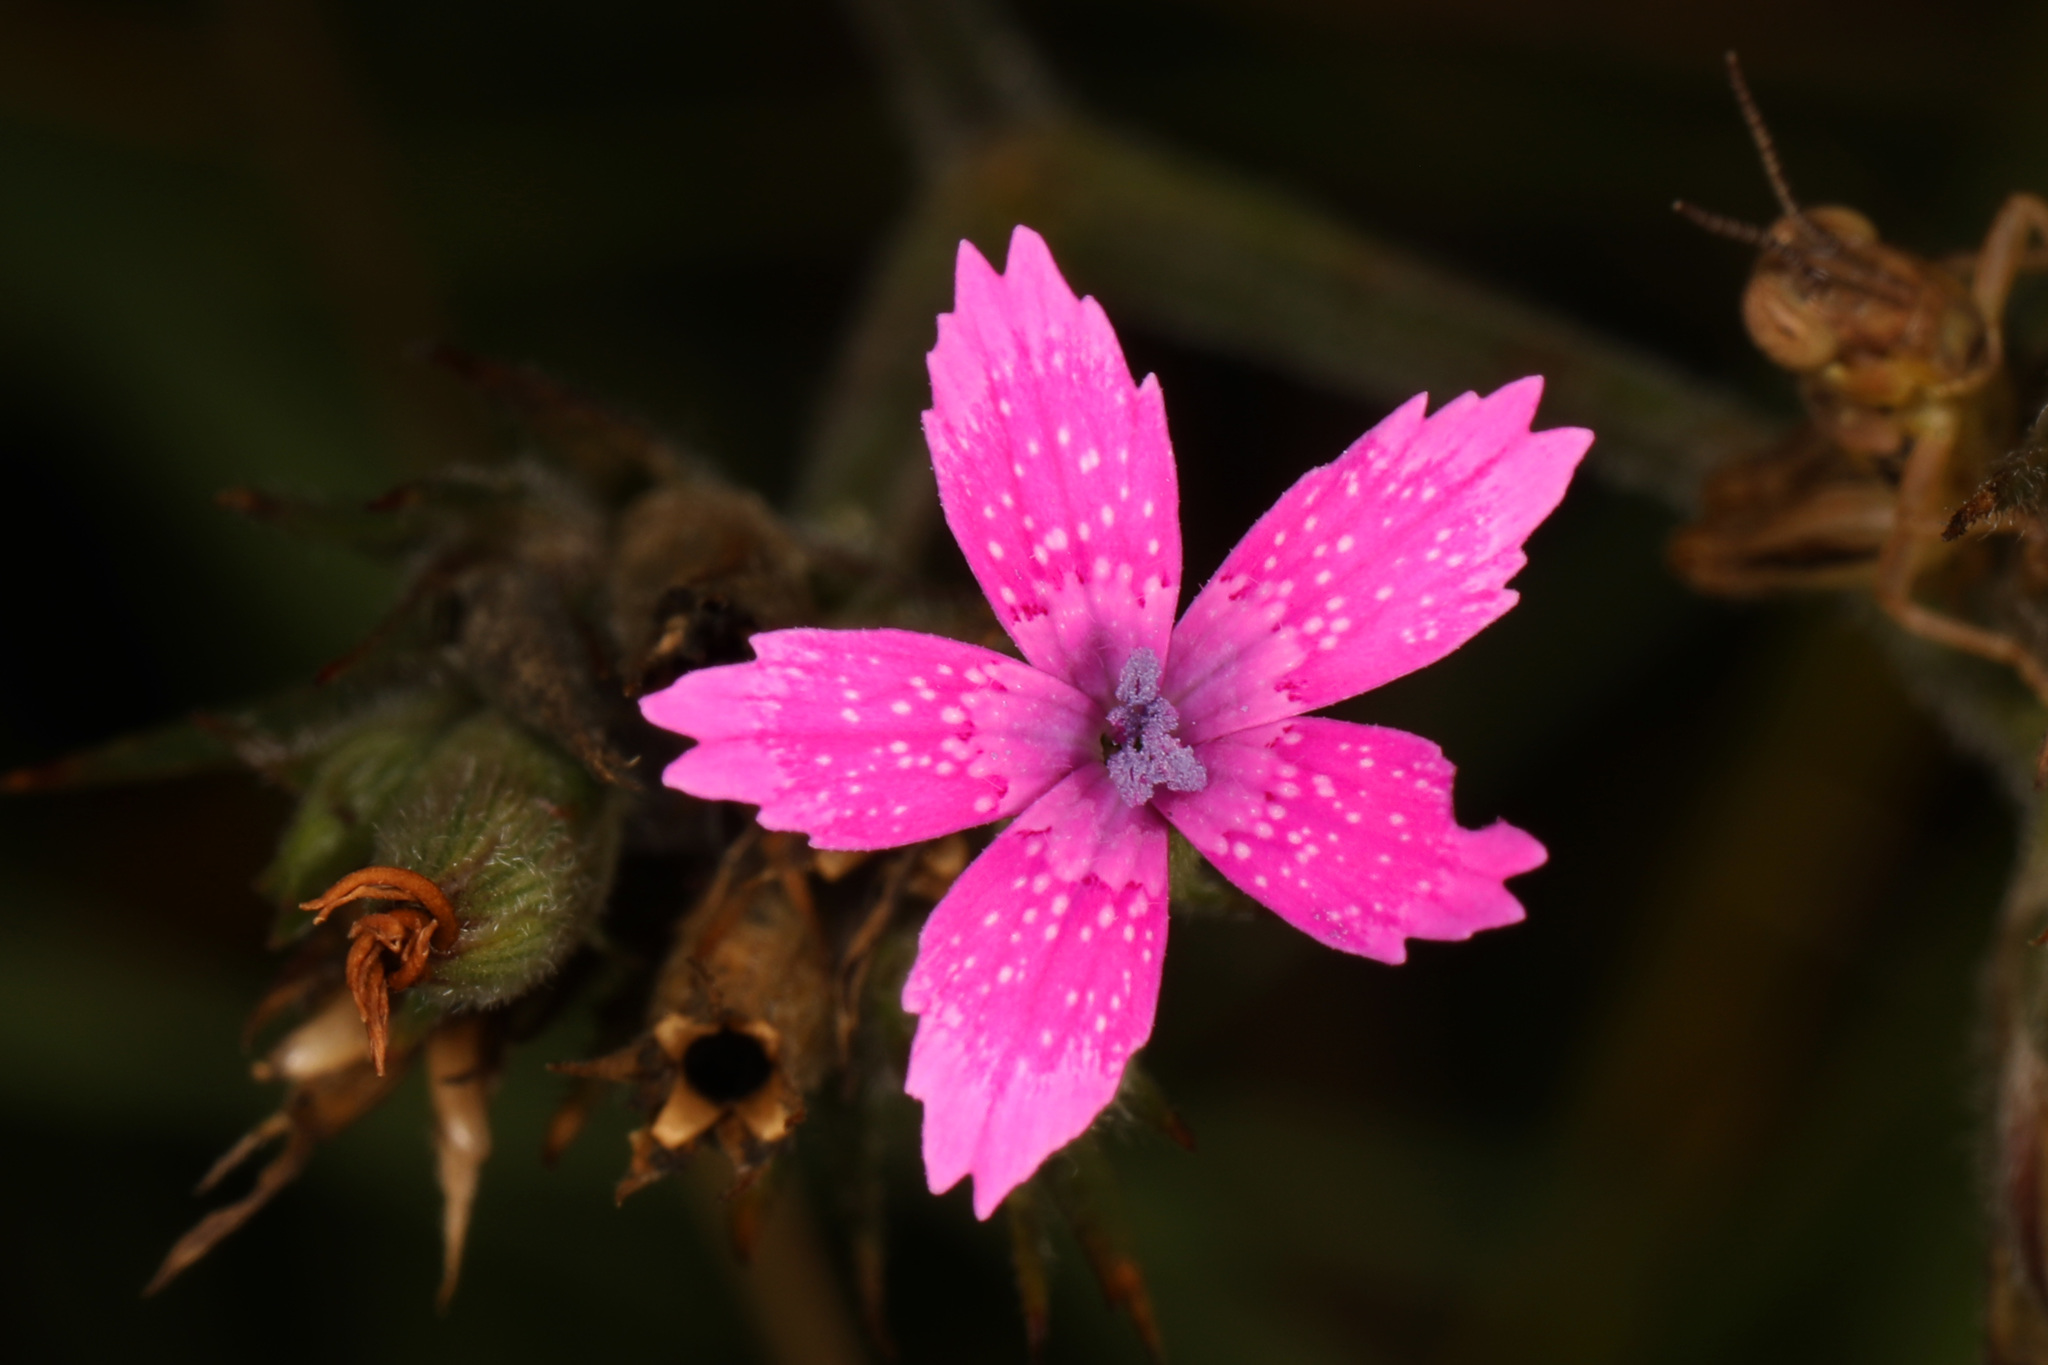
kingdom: Plantae
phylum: Tracheophyta
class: Magnoliopsida
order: Caryophyllales
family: Caryophyllaceae
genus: Dianthus
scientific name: Dianthus armeria
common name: Deptford pink
